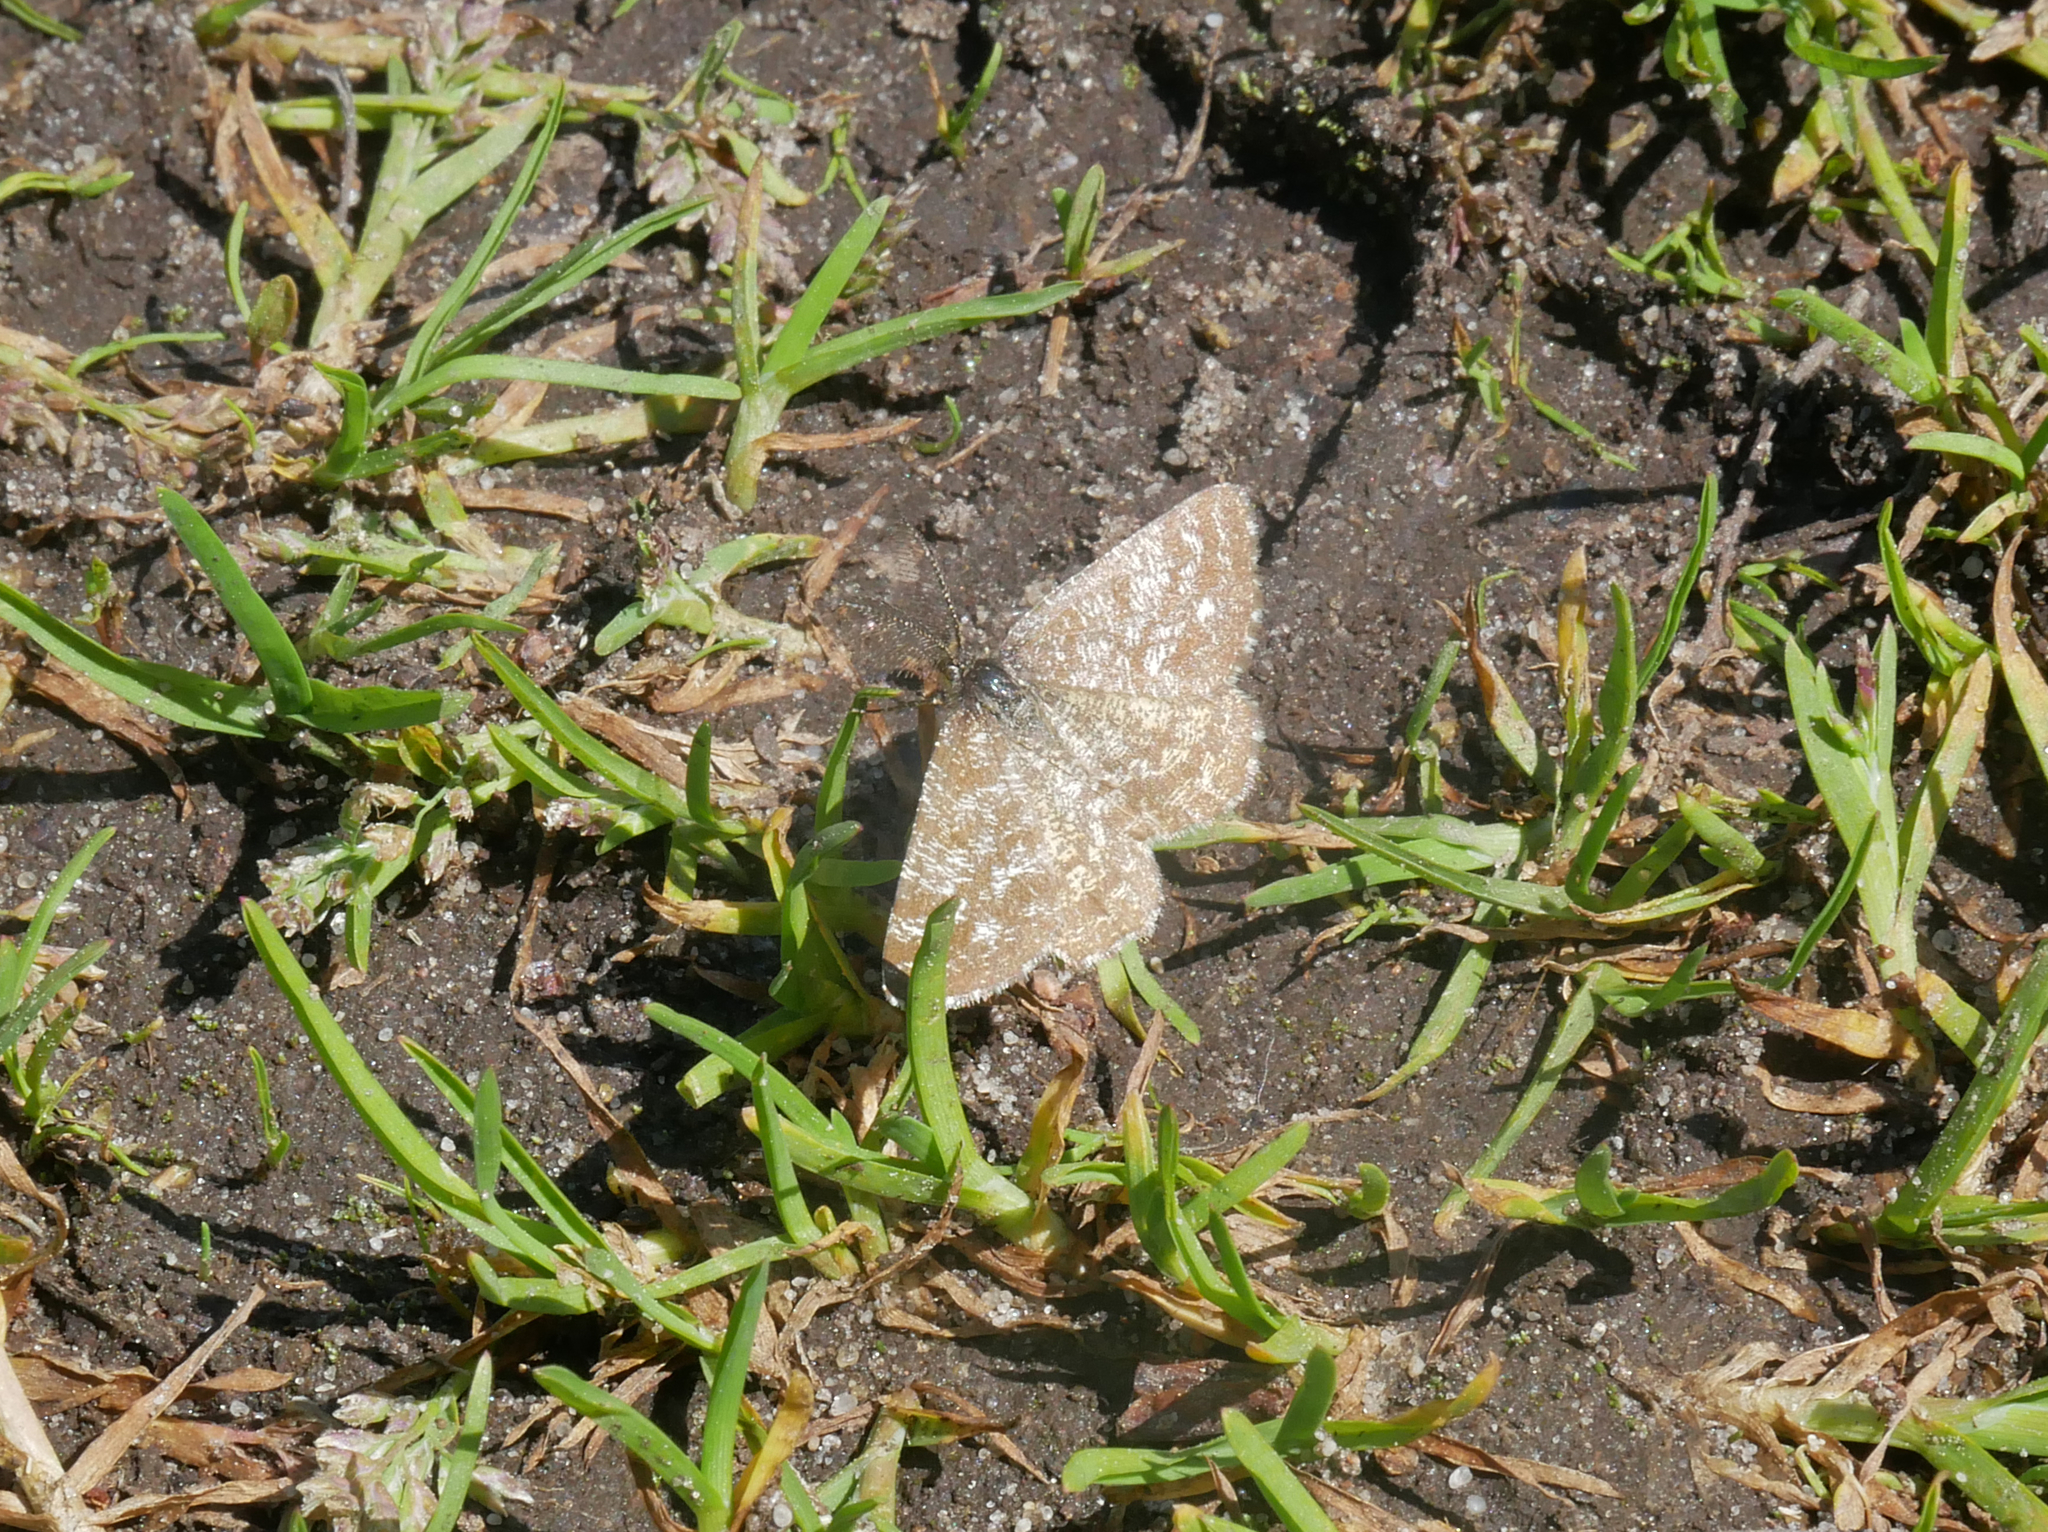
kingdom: Animalia
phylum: Arthropoda
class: Insecta
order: Lepidoptera
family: Geometridae
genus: Ematurga
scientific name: Ematurga atomaria
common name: Common heath
